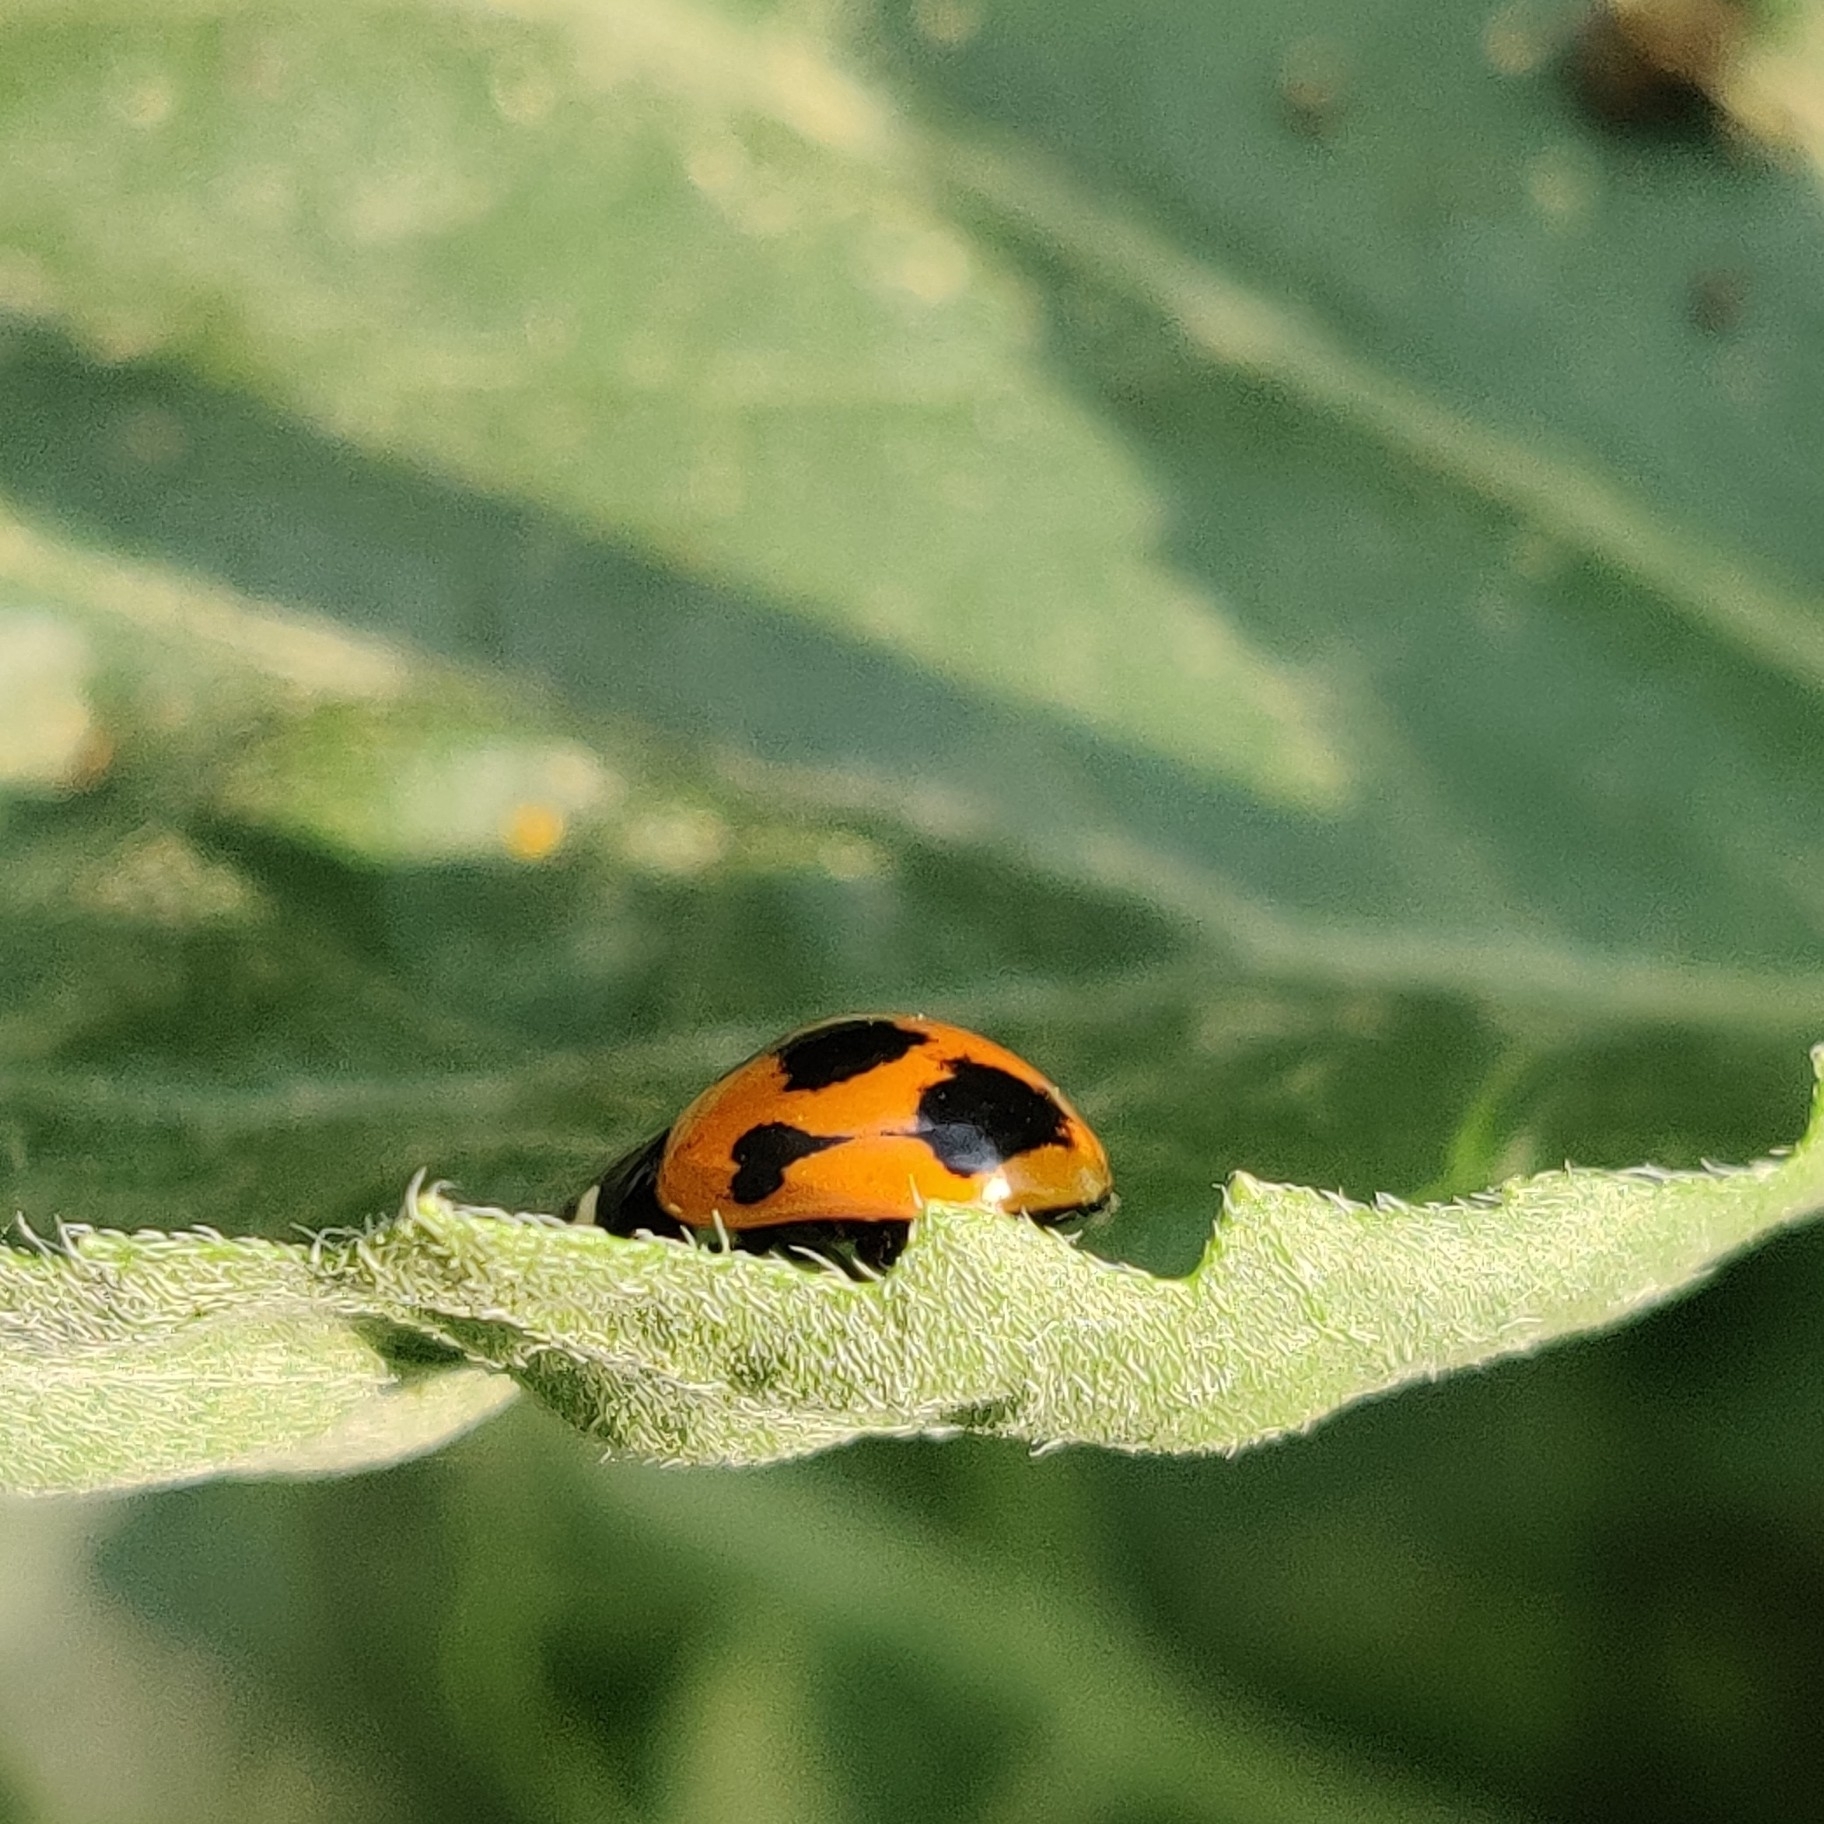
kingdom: Animalia
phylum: Arthropoda
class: Insecta
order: Coleoptera
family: Coccinellidae
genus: Coccinella
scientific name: Coccinella septempunctata
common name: Sevenspotted lady beetle
